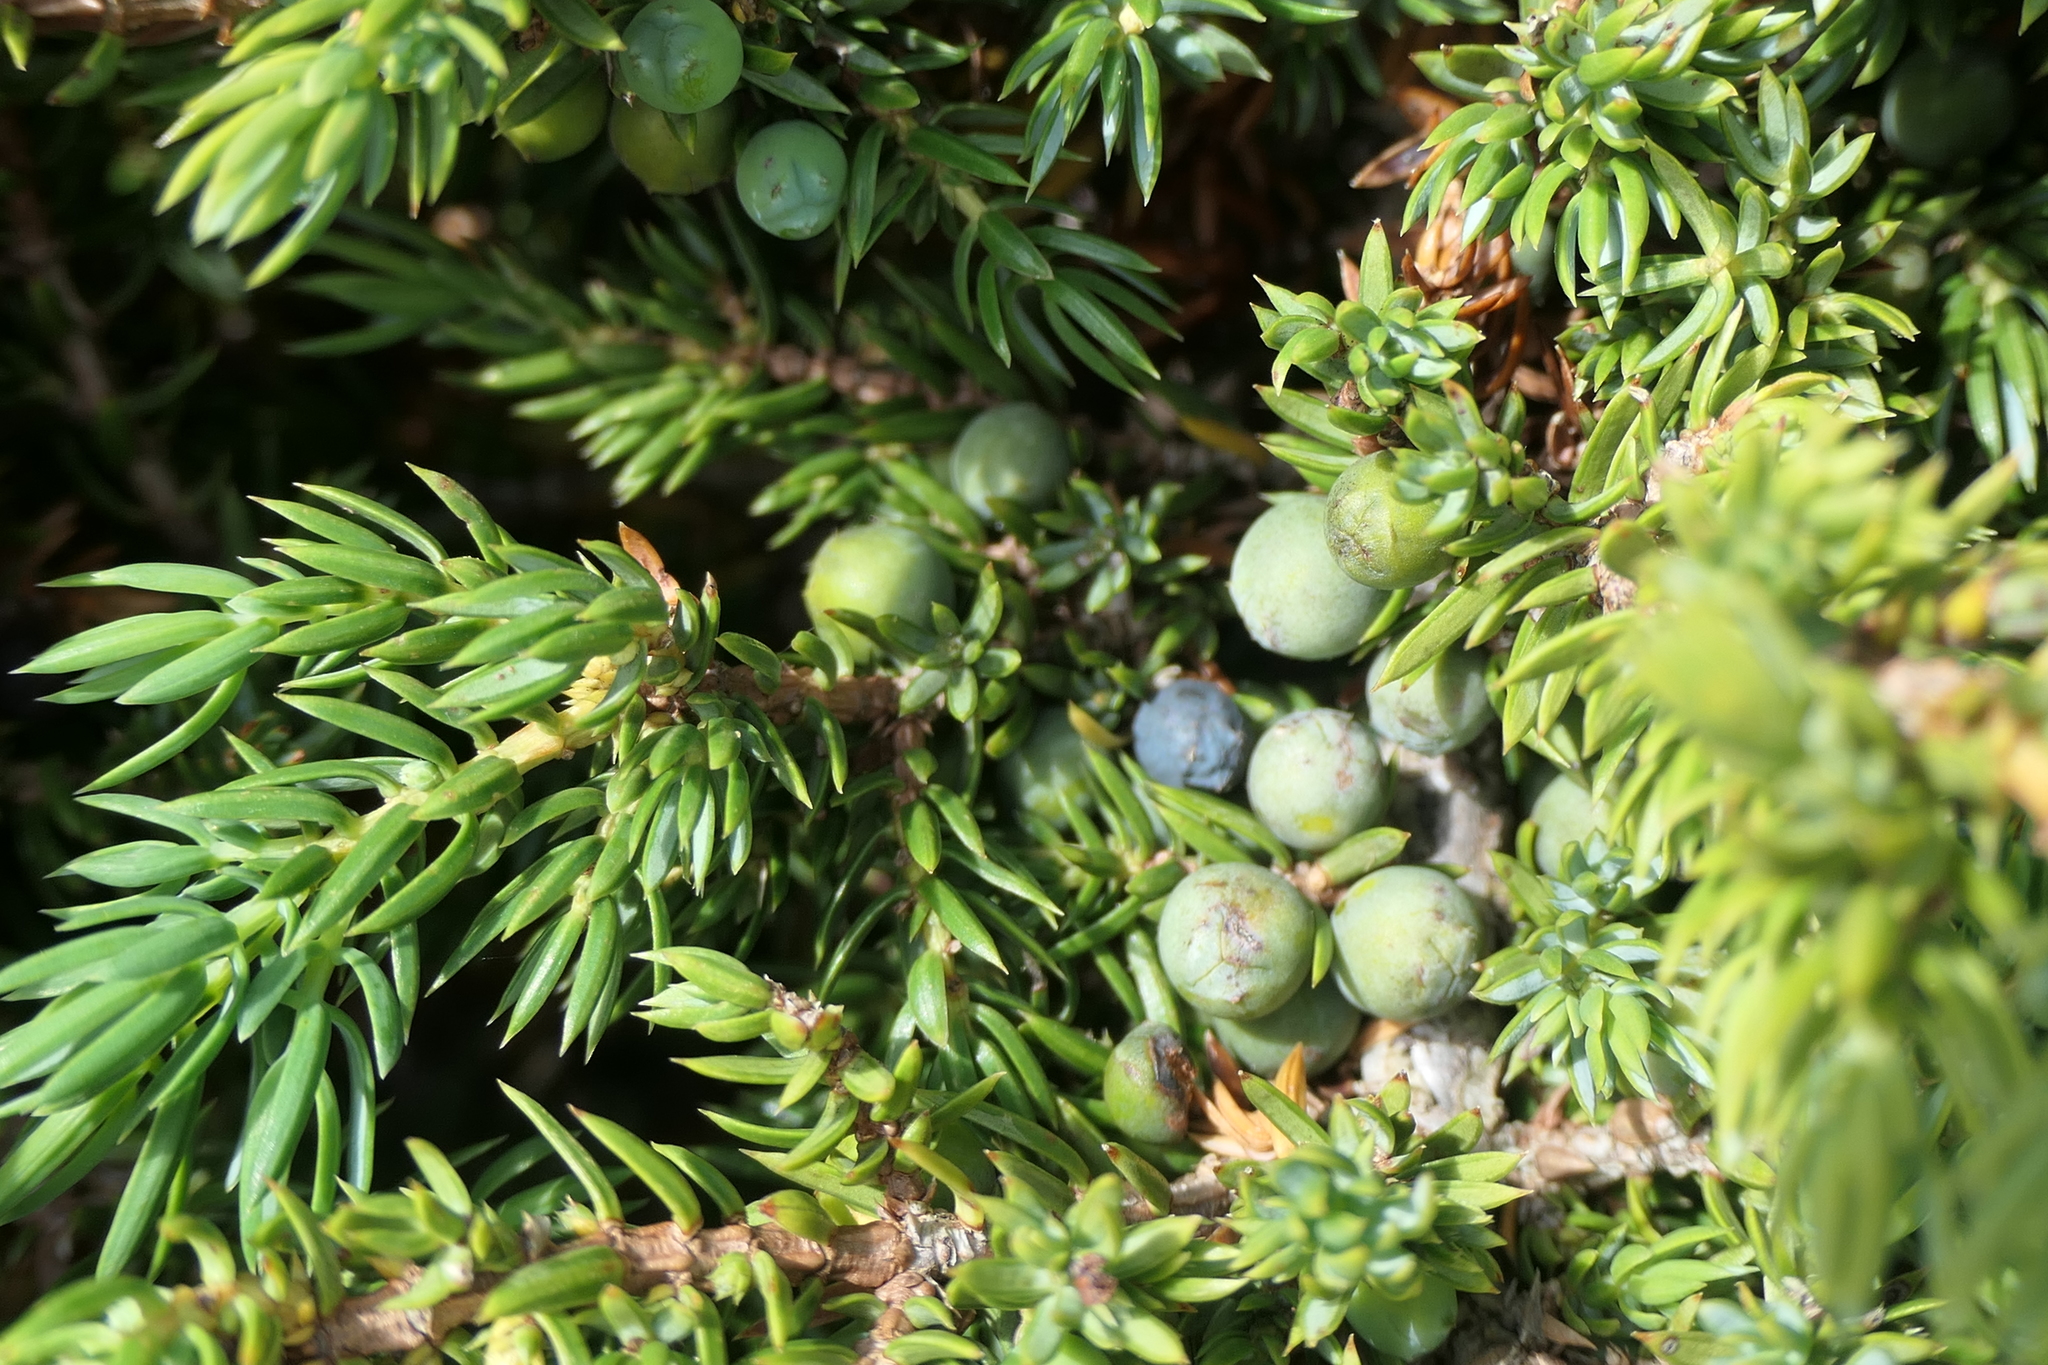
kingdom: Plantae
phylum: Tracheophyta
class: Pinopsida
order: Pinales
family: Cupressaceae
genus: Juniperus
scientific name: Juniperus communis
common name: Common juniper
